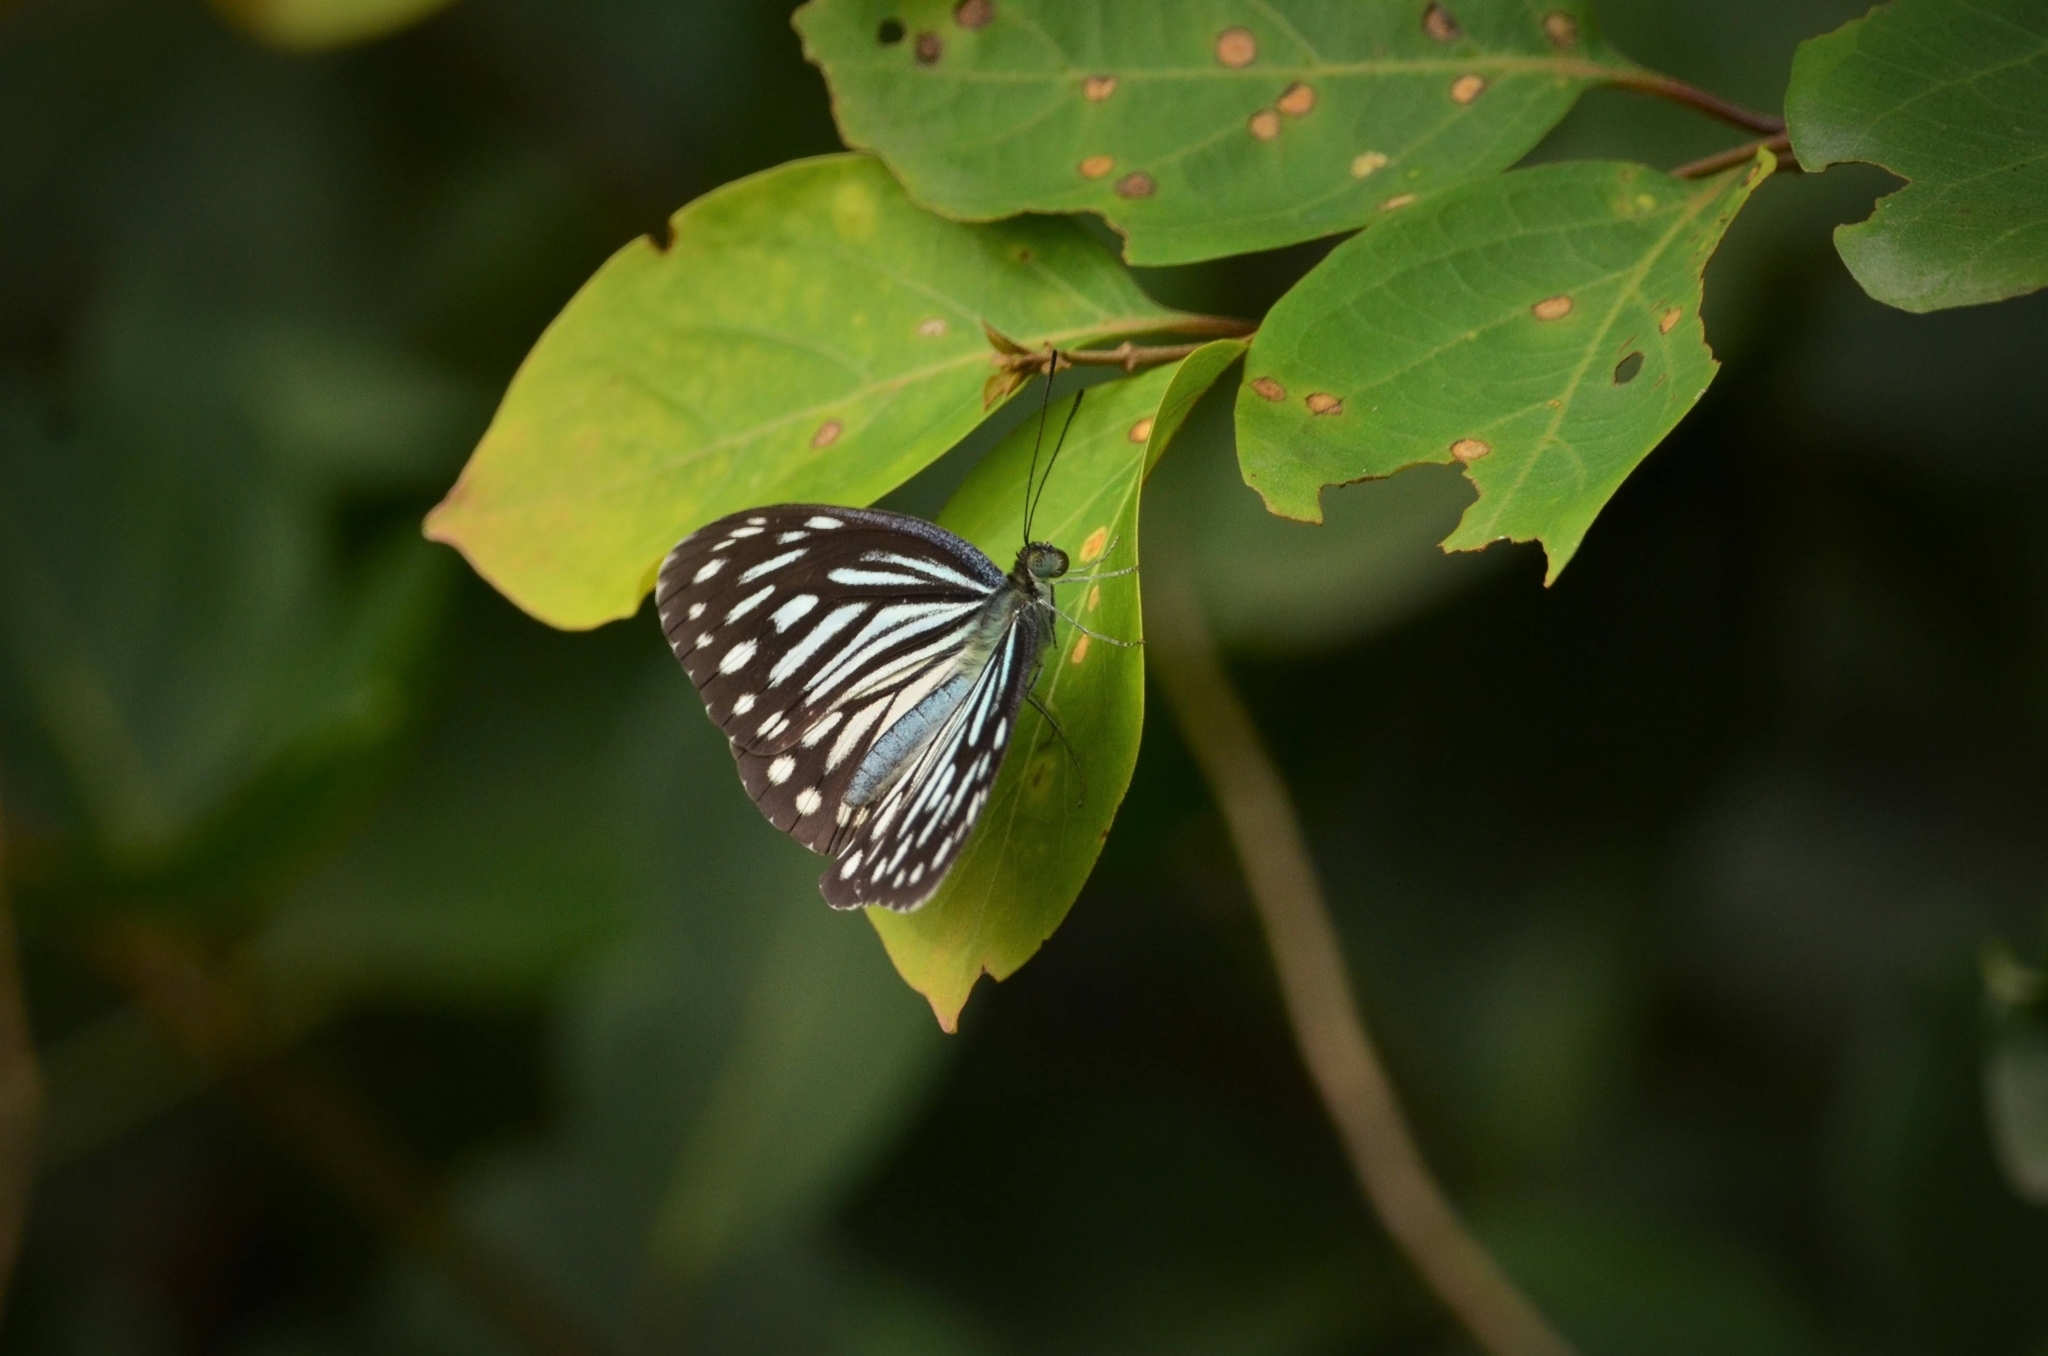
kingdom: Animalia
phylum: Arthropoda
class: Insecta
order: Lepidoptera
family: Pieridae
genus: Pareronia
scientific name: Pareronia hippia
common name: Indian wanderer
